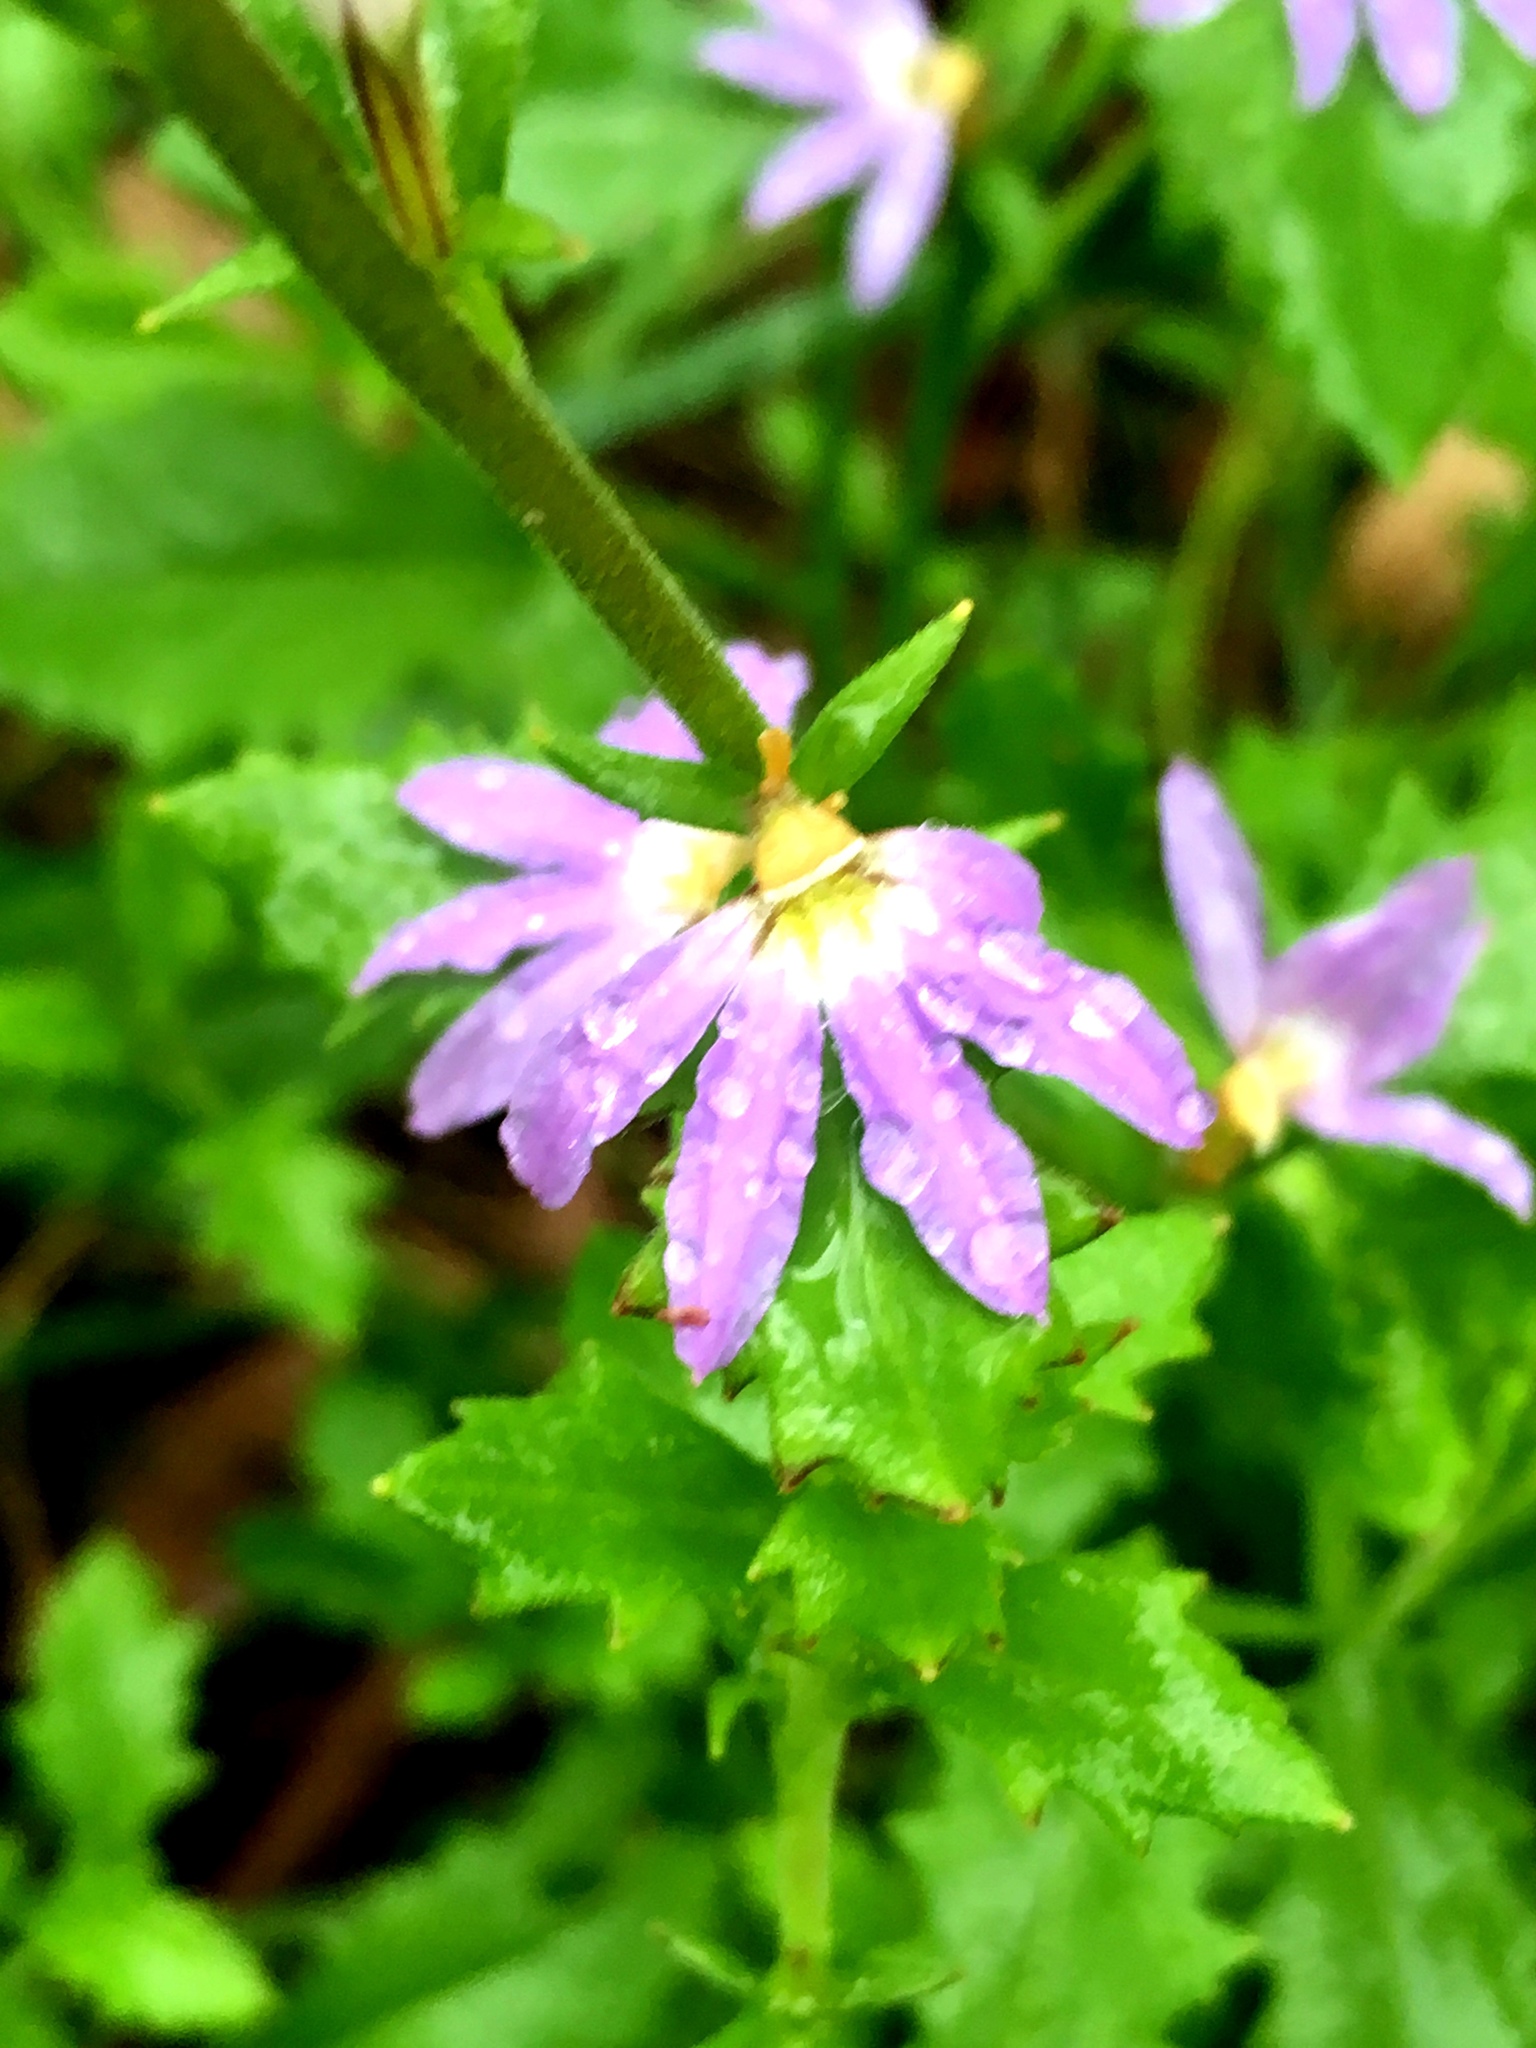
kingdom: Plantae
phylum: Tracheophyta
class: Magnoliopsida
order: Asterales
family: Goodeniaceae
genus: Scaevola
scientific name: Scaevola albida
